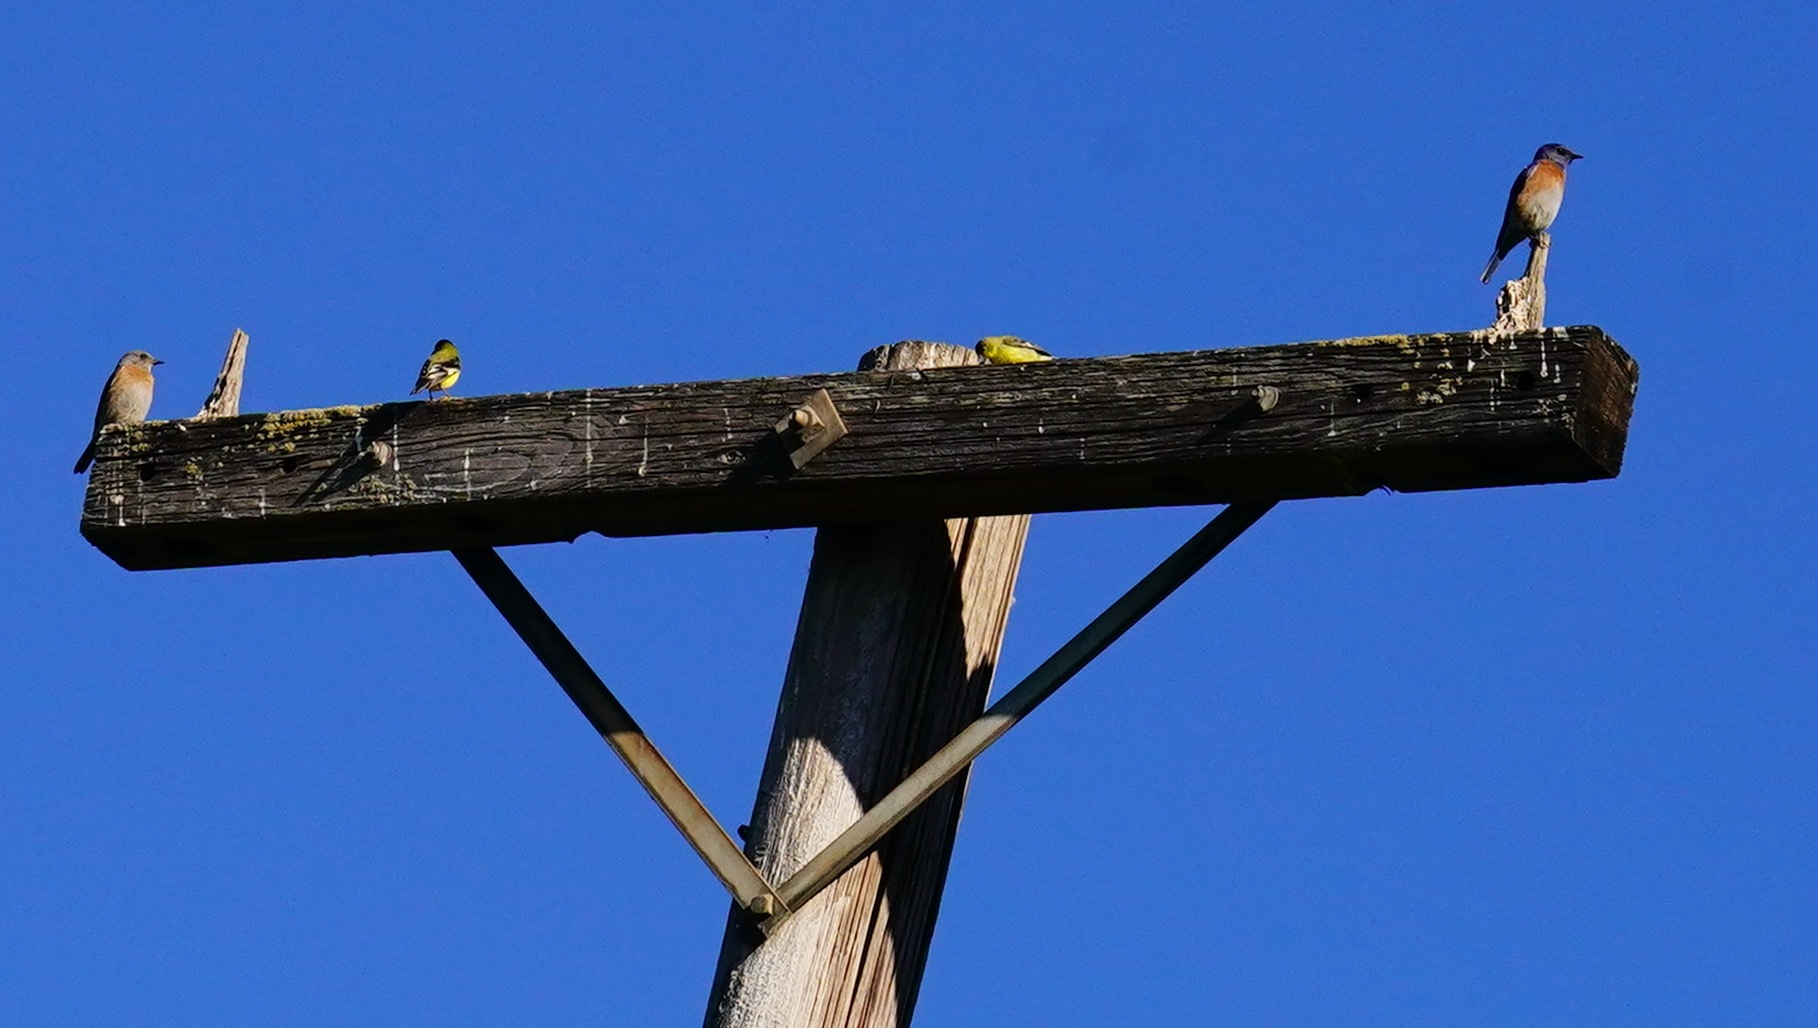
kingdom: Animalia
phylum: Chordata
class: Aves
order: Passeriformes
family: Fringillidae
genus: Spinus
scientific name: Spinus psaltria
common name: Lesser goldfinch
